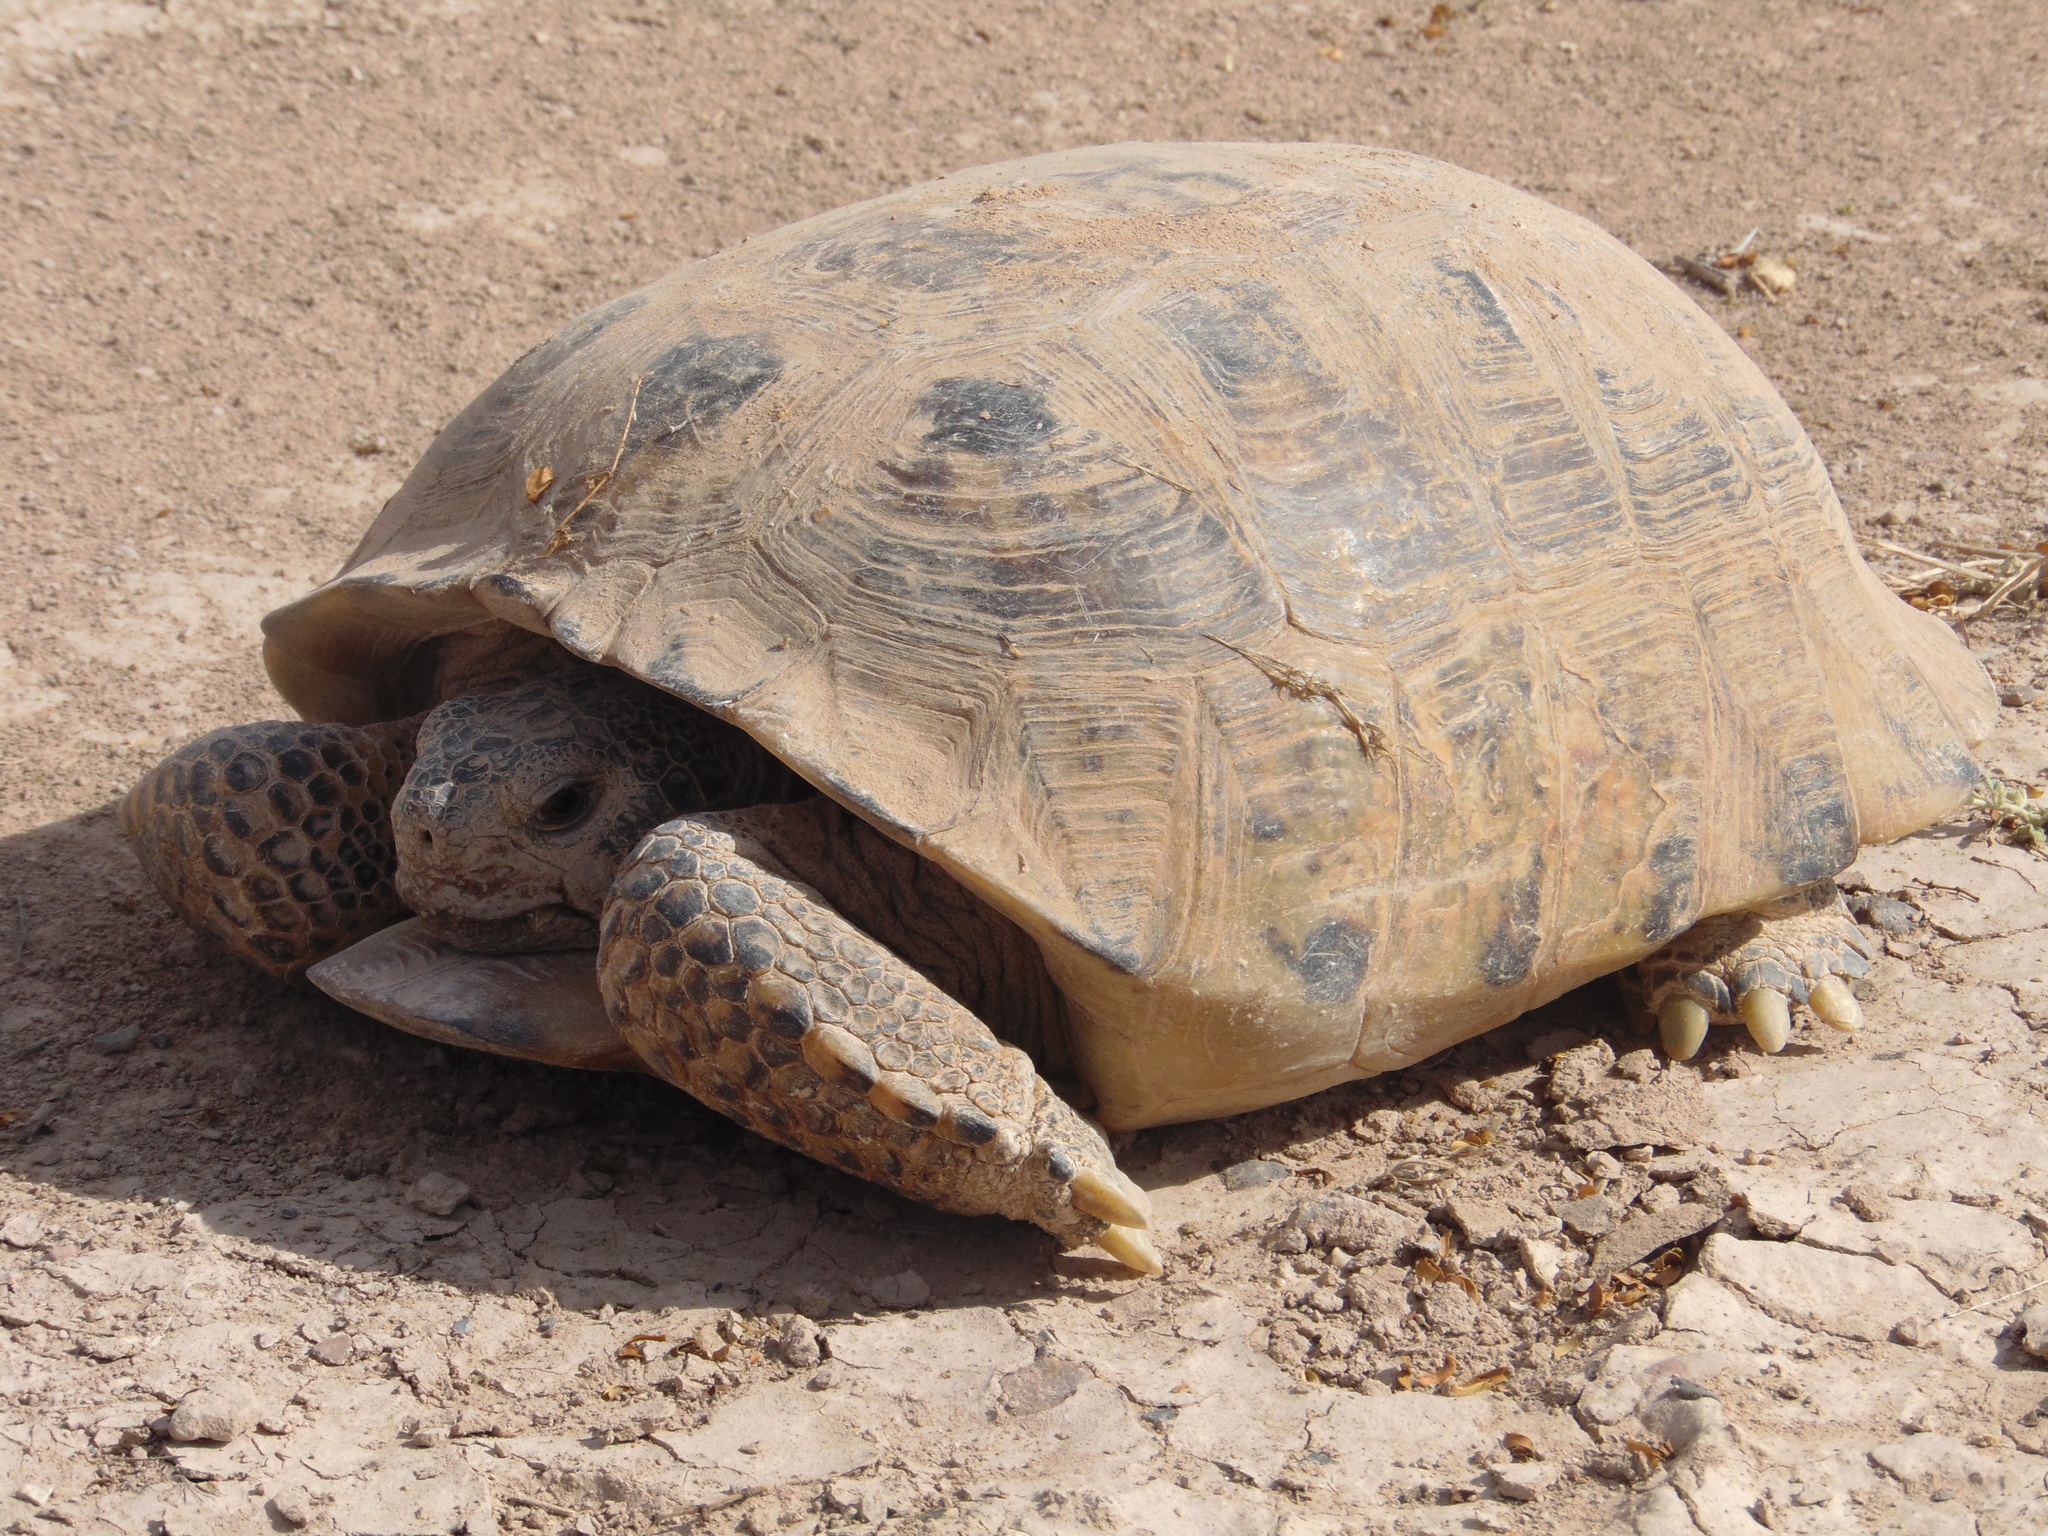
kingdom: Animalia
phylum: Chordata
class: Testudines
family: Testudinidae
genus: Gopherus
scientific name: Gopherus flavomarginatus
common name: Bolson tortoise
